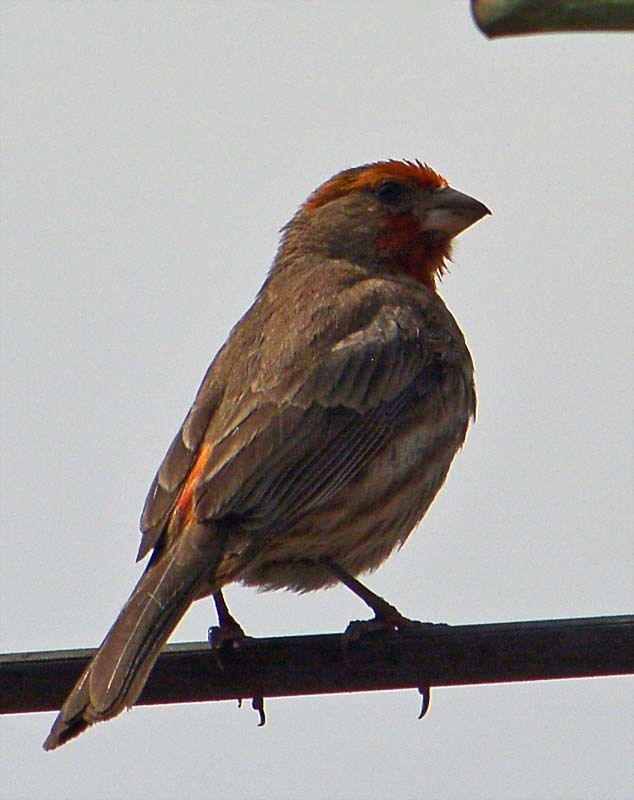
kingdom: Animalia
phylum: Chordata
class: Aves
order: Passeriformes
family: Fringillidae
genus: Haemorhous
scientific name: Haemorhous mexicanus
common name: House finch
